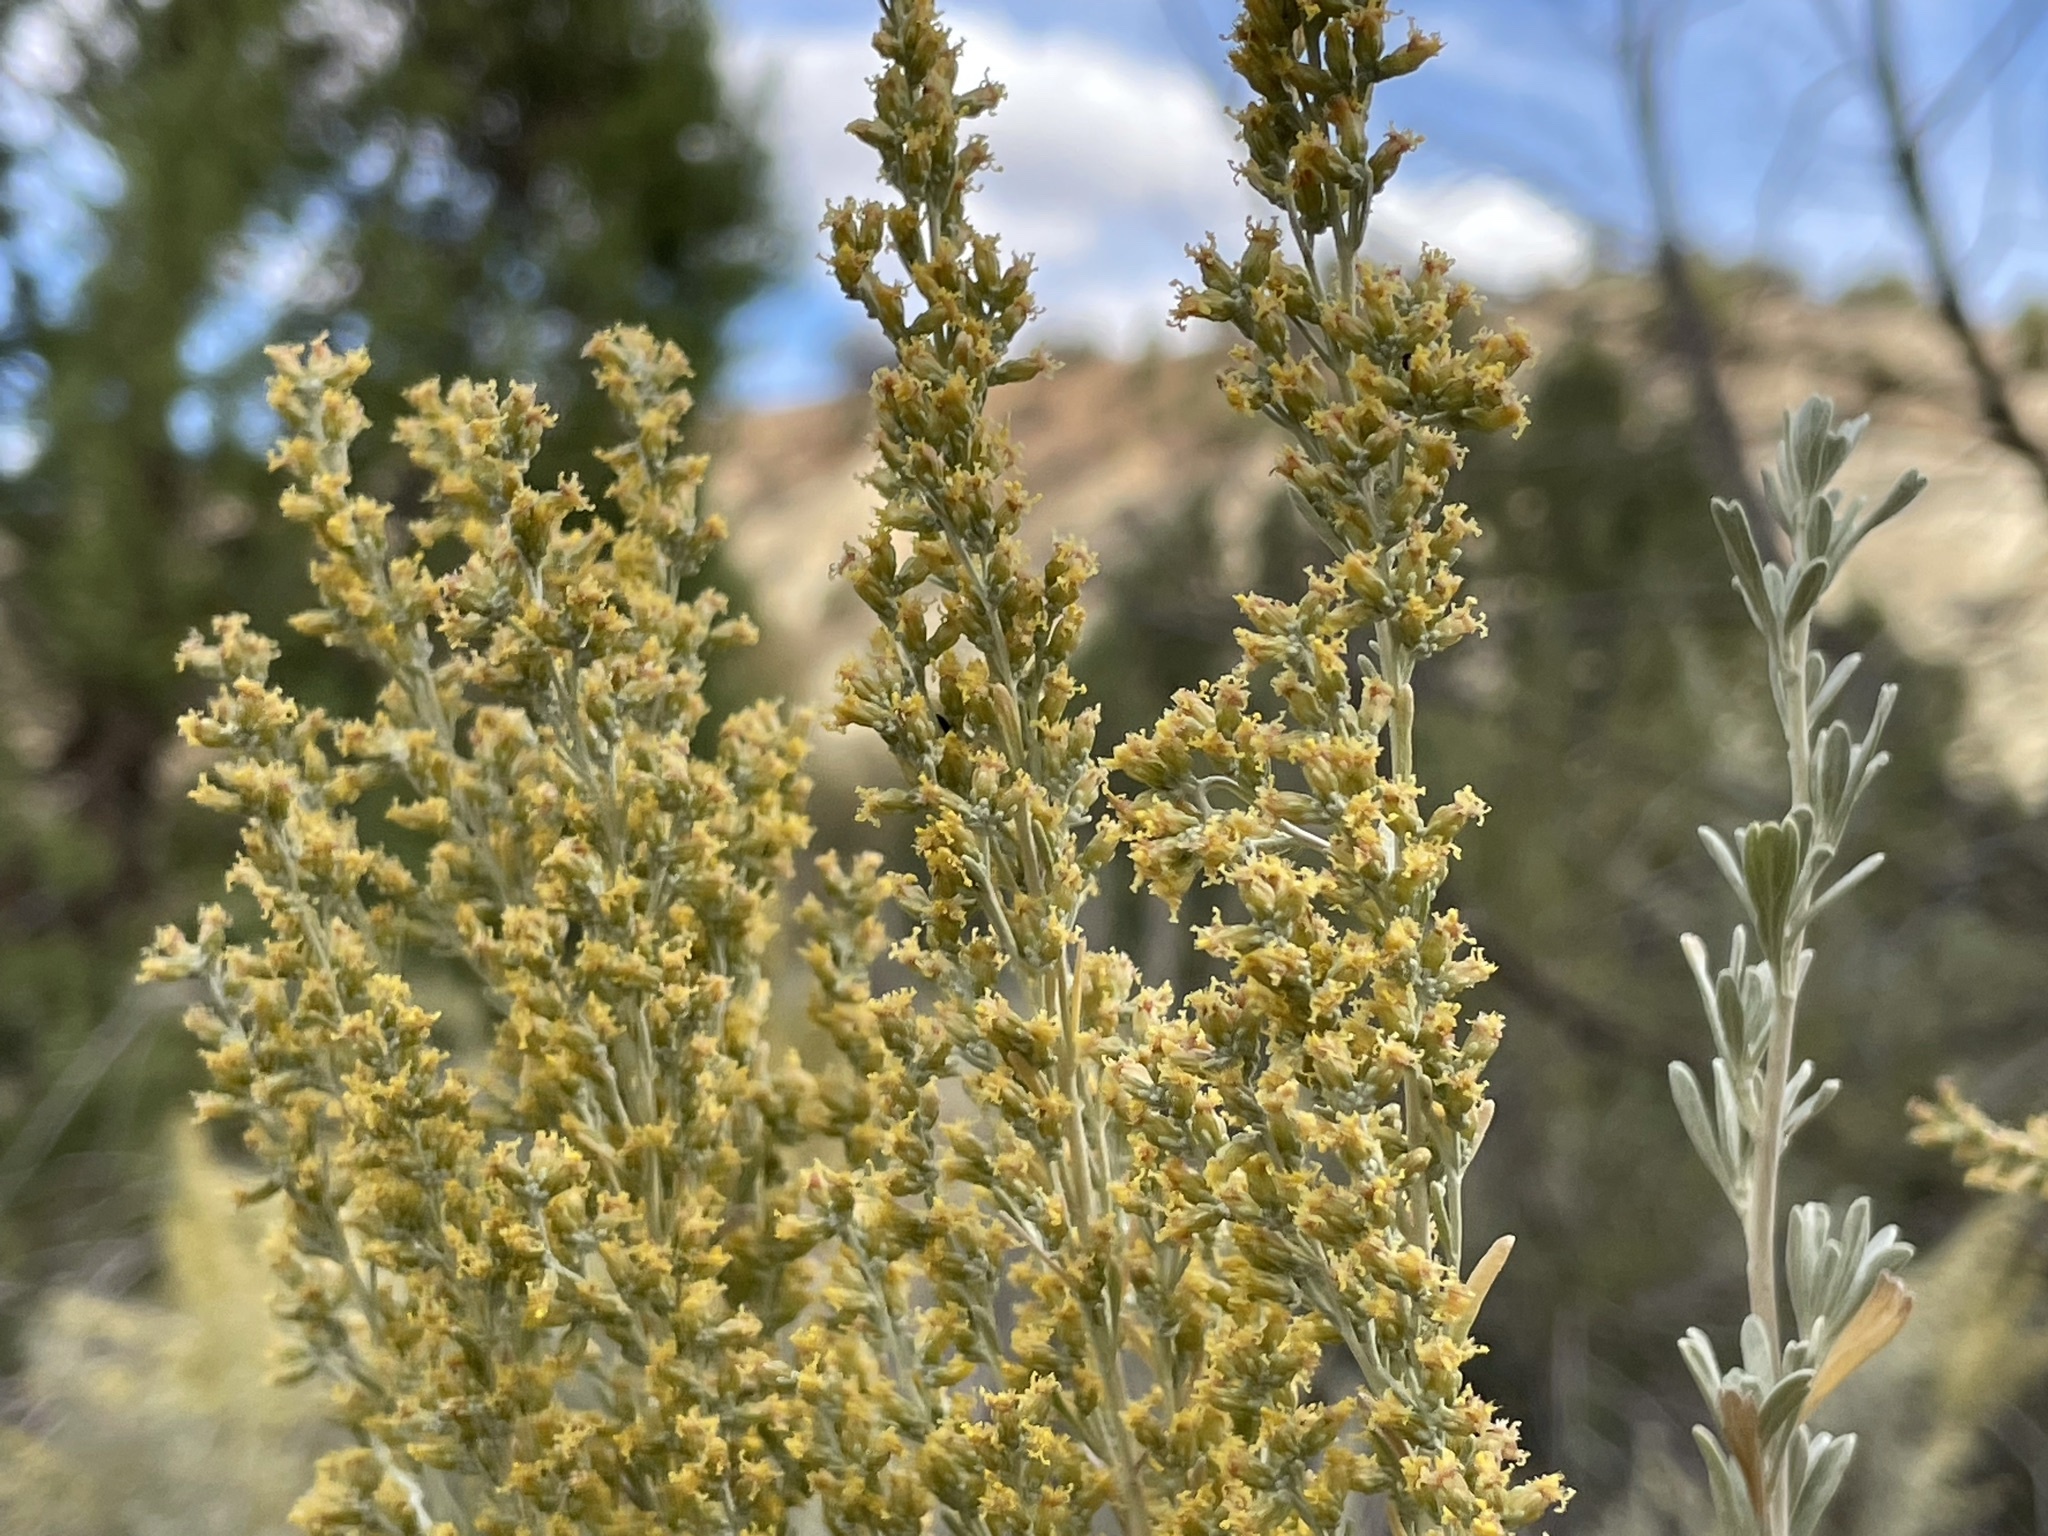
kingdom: Plantae
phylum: Tracheophyta
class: Magnoliopsida
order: Asterales
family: Asteraceae
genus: Artemisia
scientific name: Artemisia tridentata
